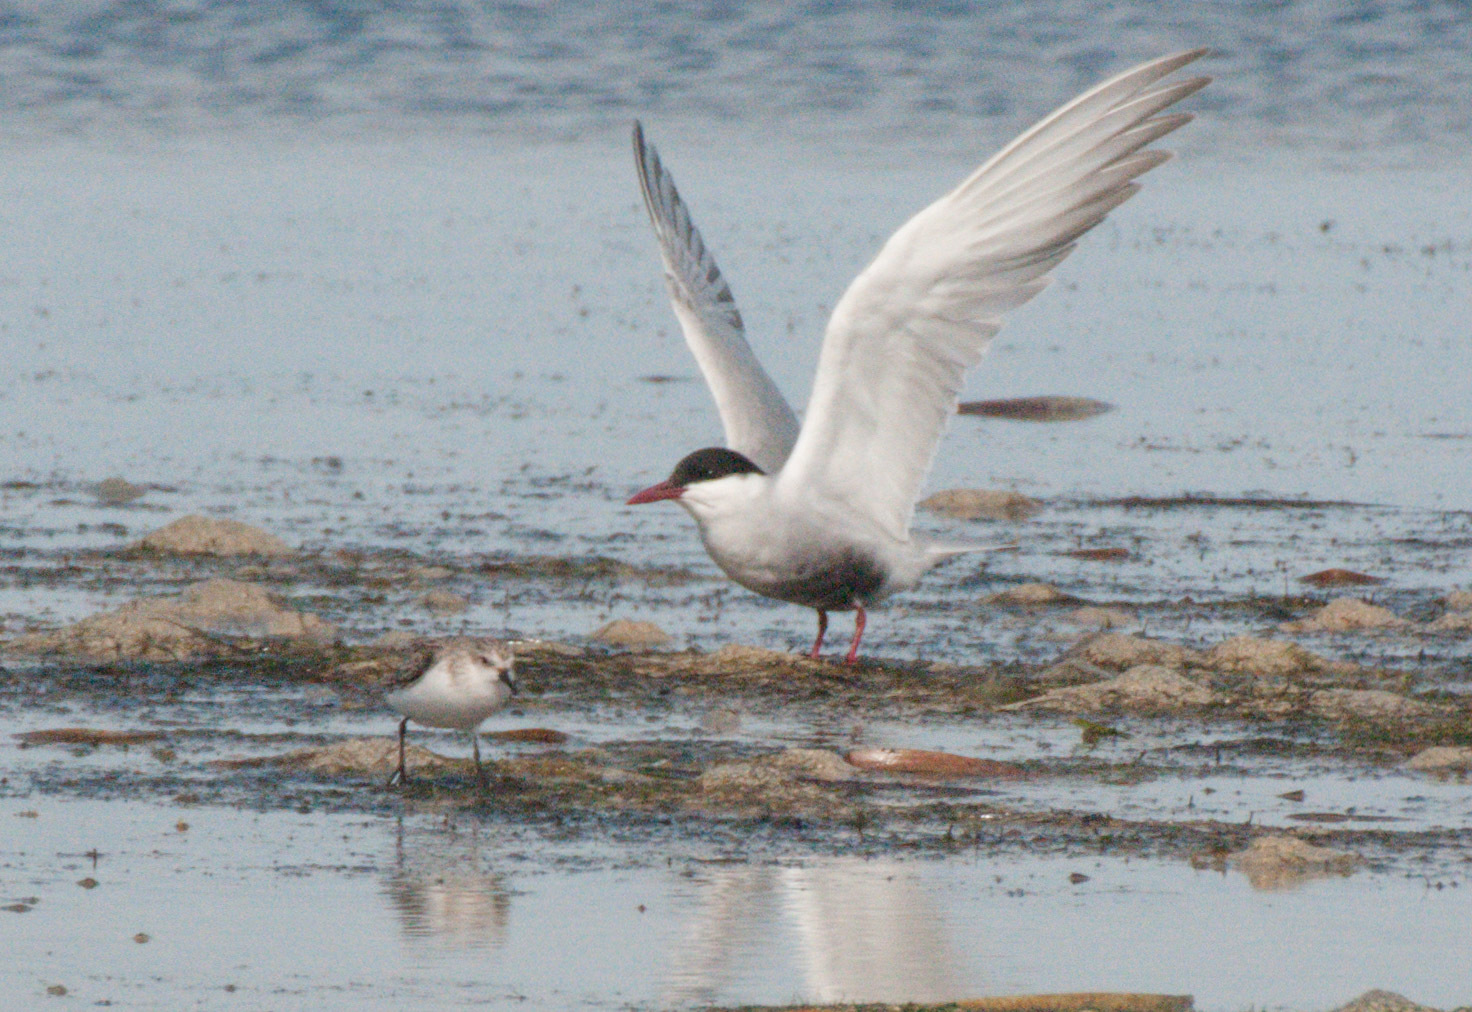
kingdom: Animalia
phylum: Chordata
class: Aves
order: Charadriiformes
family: Laridae
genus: Chlidonias
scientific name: Chlidonias hybrida
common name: Whiskered tern
